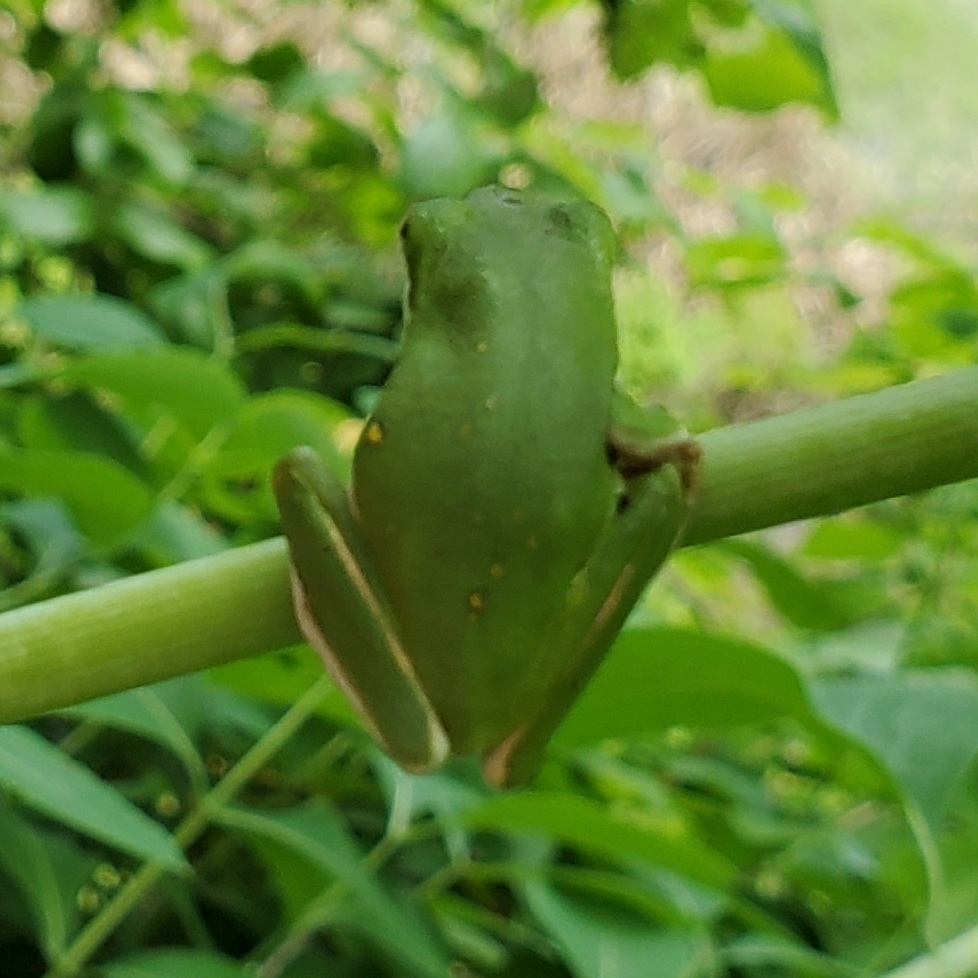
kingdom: Animalia
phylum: Chordata
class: Amphibia
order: Anura
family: Hylidae
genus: Dryophytes
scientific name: Dryophytes cinereus
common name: Green treefrog
